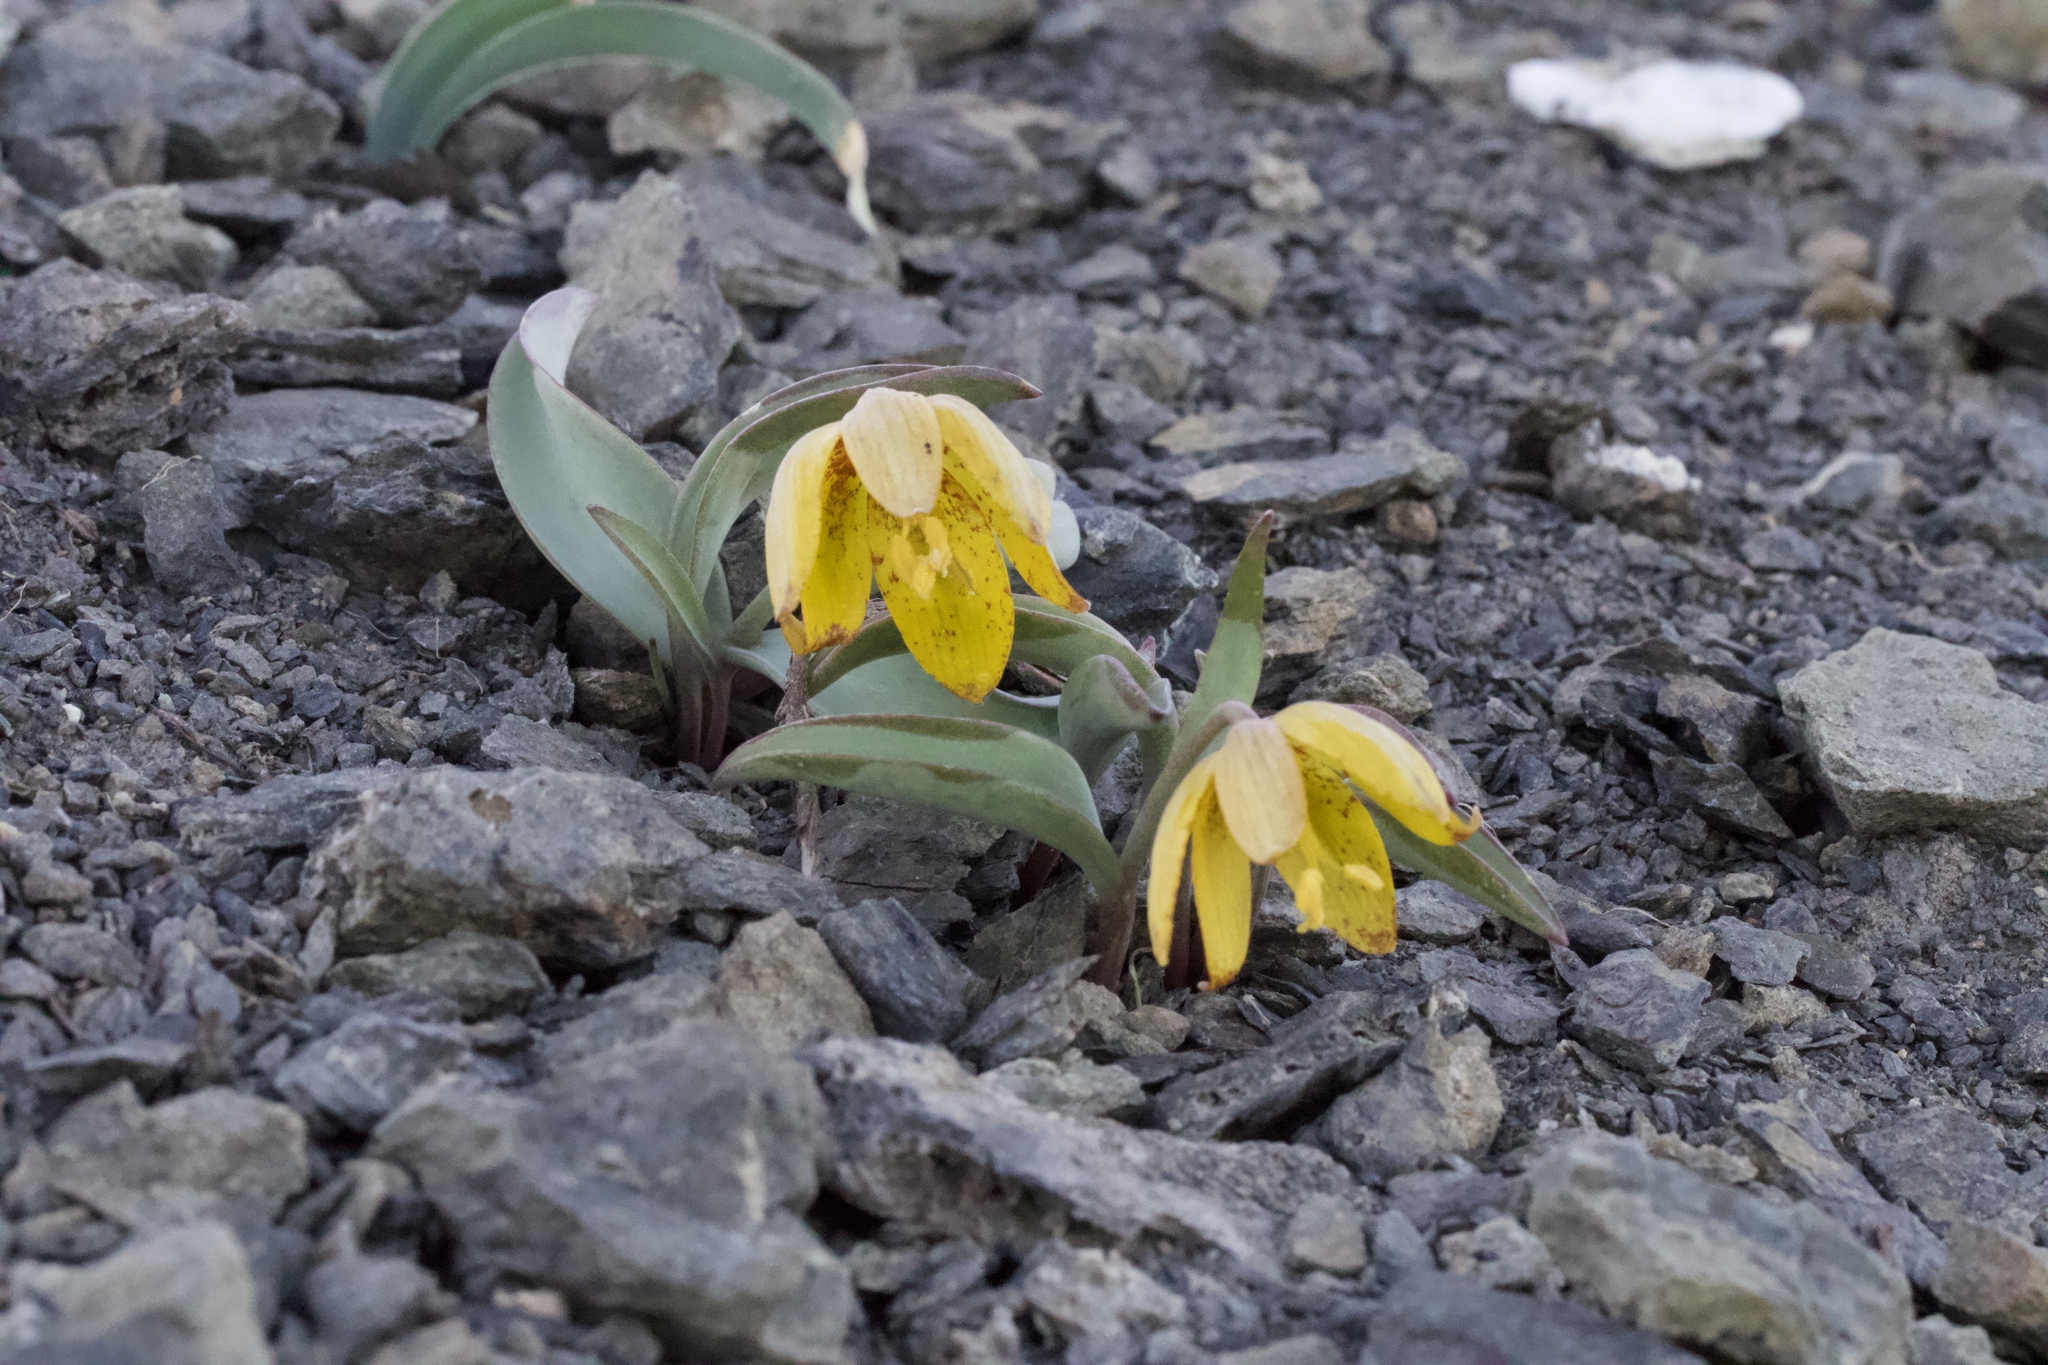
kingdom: Plantae
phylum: Tracheophyta
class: Liliopsida
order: Liliales
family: Liliaceae
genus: Fritillaria
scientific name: Fritillaria glauca
